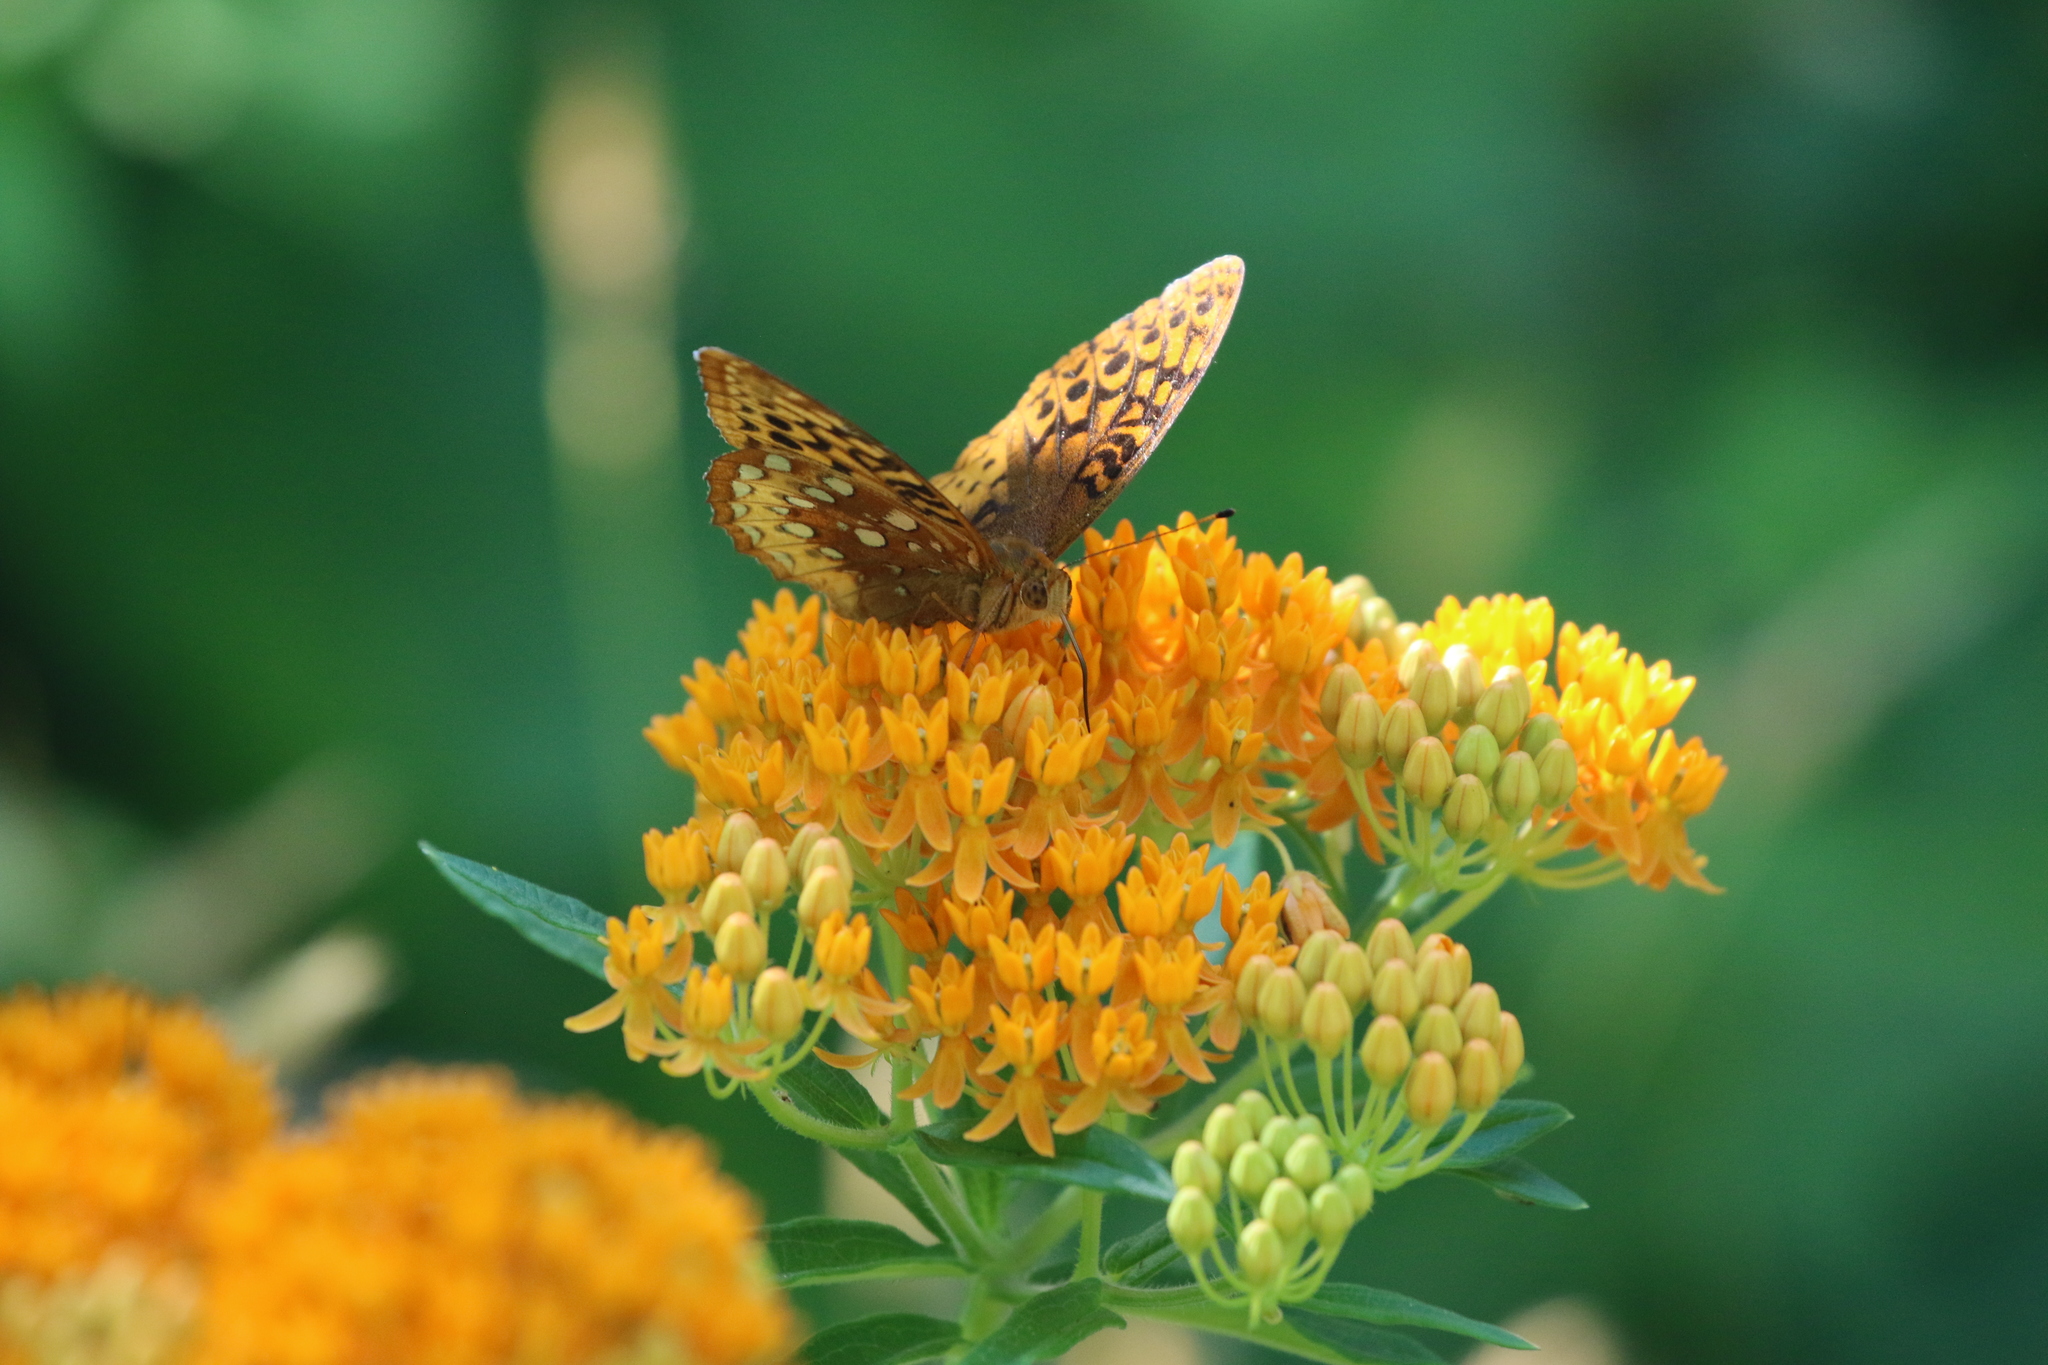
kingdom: Plantae
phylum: Tracheophyta
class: Magnoliopsida
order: Gentianales
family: Apocynaceae
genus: Asclepias
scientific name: Asclepias tuberosa
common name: Butterfly milkweed
